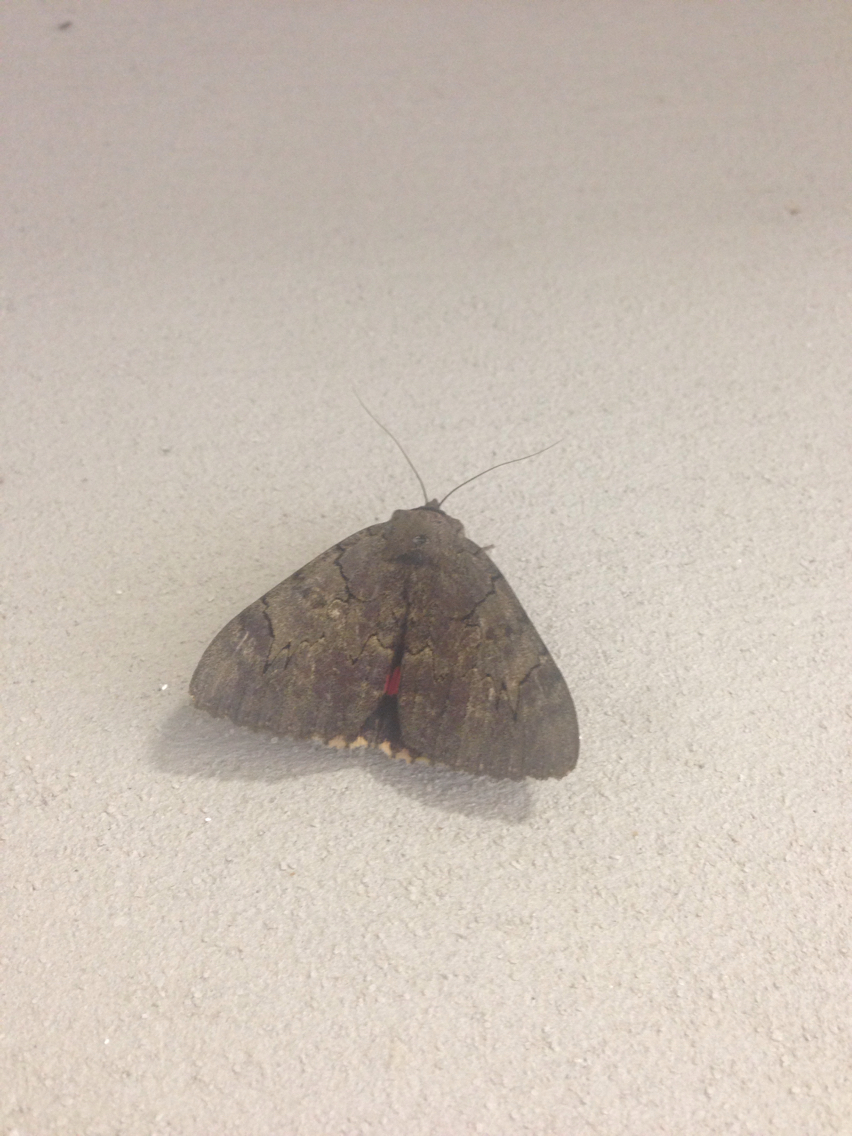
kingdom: Animalia
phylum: Arthropoda
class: Insecta
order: Lepidoptera
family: Erebidae
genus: Catocala
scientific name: Catocala cara
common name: Darling underwing
